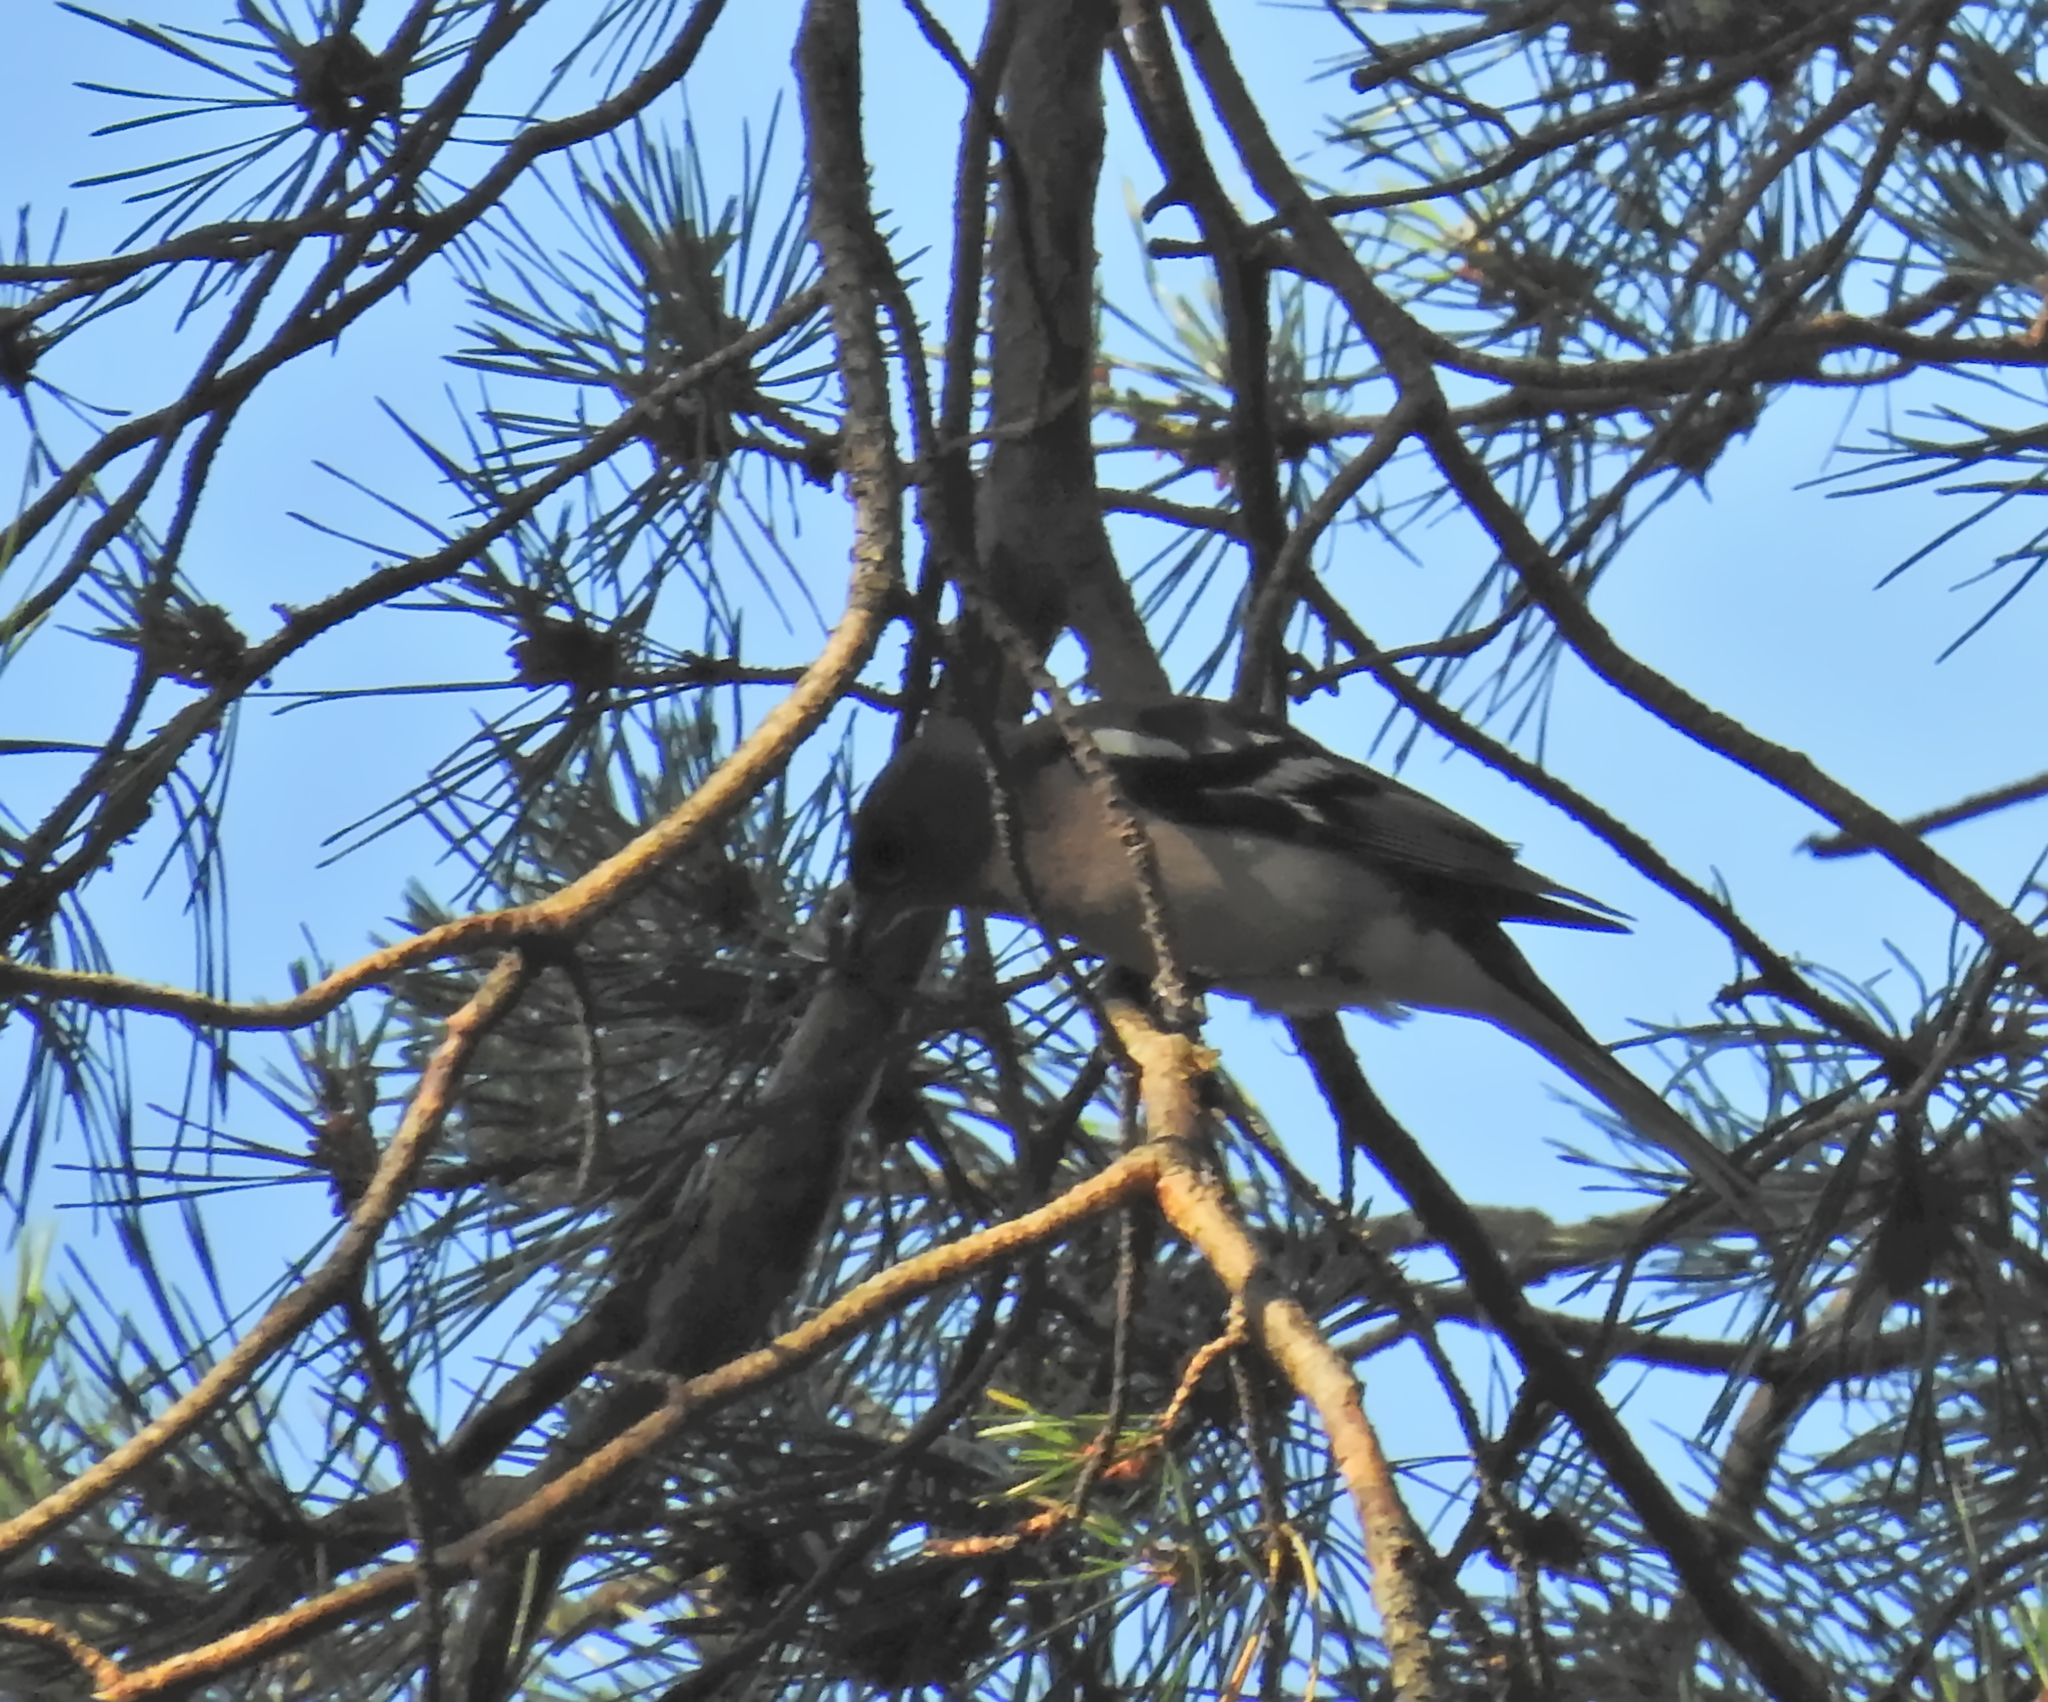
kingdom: Animalia
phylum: Chordata
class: Aves
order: Passeriformes
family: Fringillidae
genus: Fringilla
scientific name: Fringilla coelebs
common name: Common chaffinch
